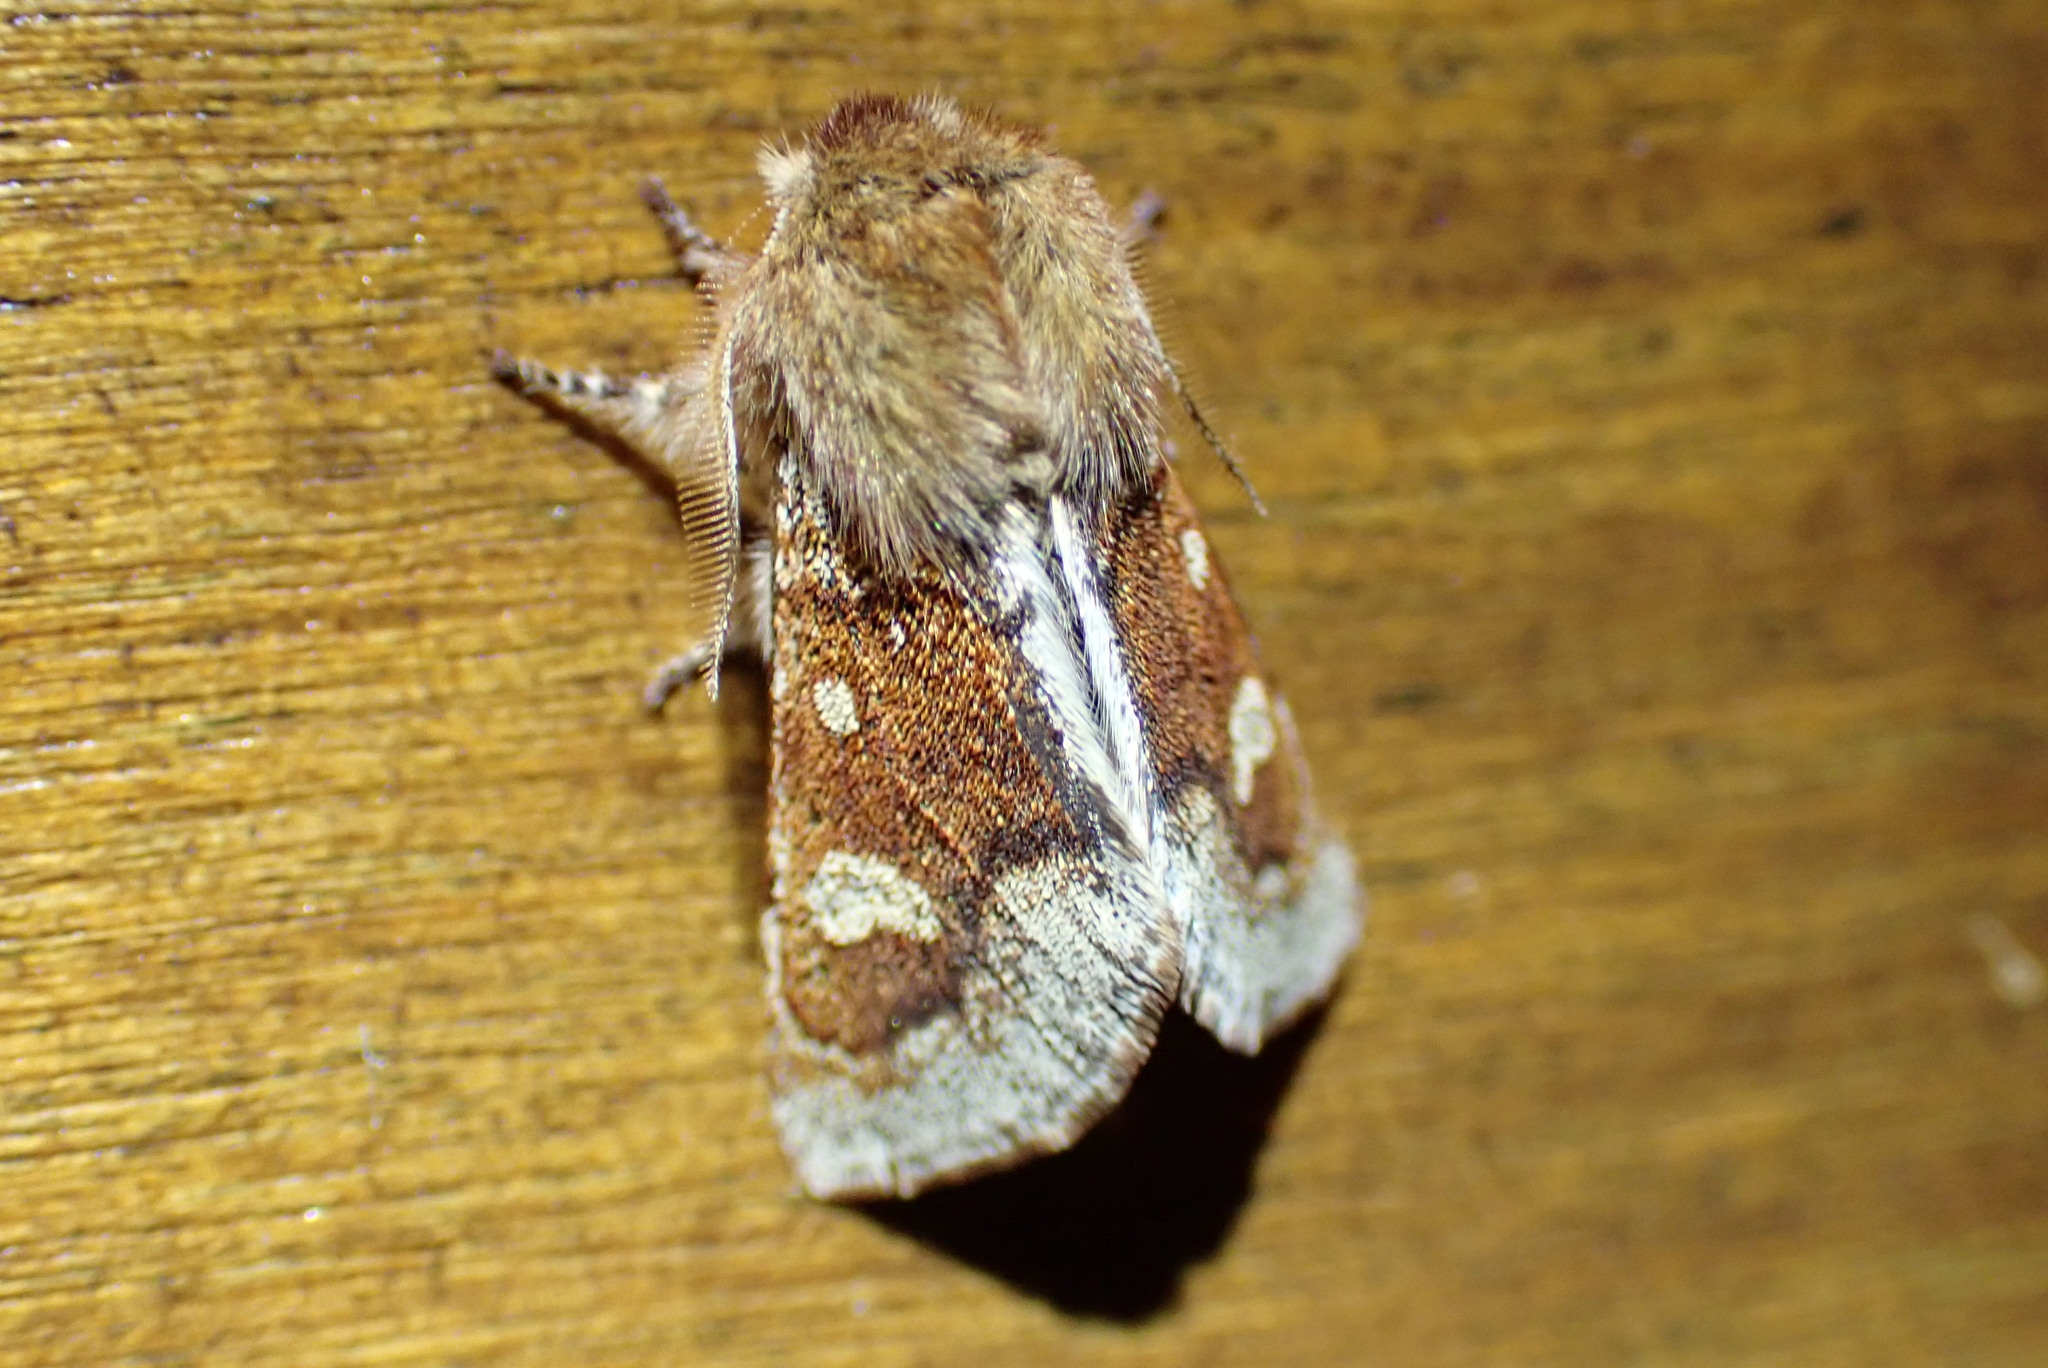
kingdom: Animalia
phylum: Arthropoda
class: Insecta
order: Lepidoptera
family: Noctuidae
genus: Psaphida
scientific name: Psaphida styracis
